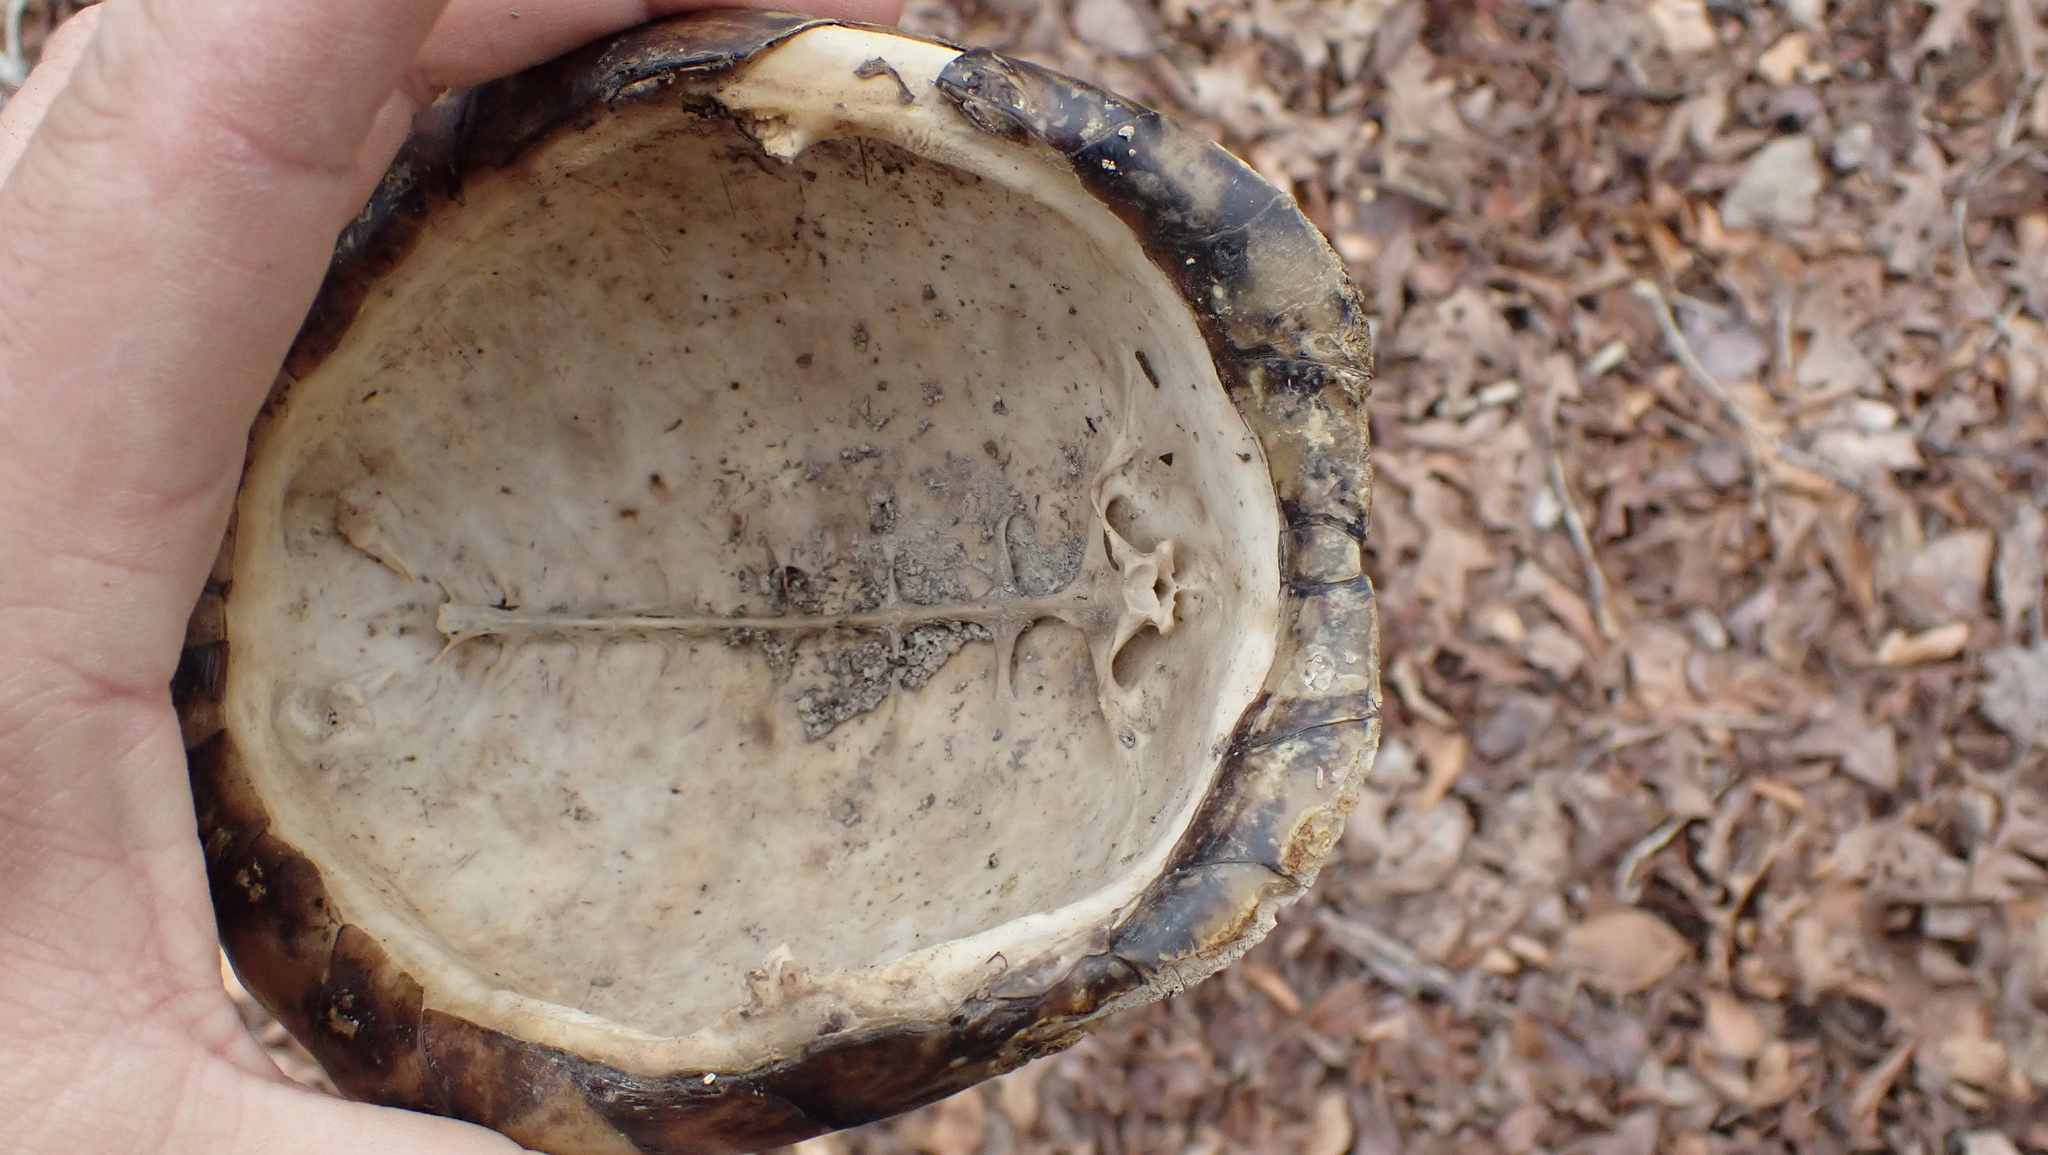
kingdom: Animalia
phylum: Chordata
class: Testudines
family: Emydidae
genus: Terrapene
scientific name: Terrapene carolina
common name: Common box turtle
